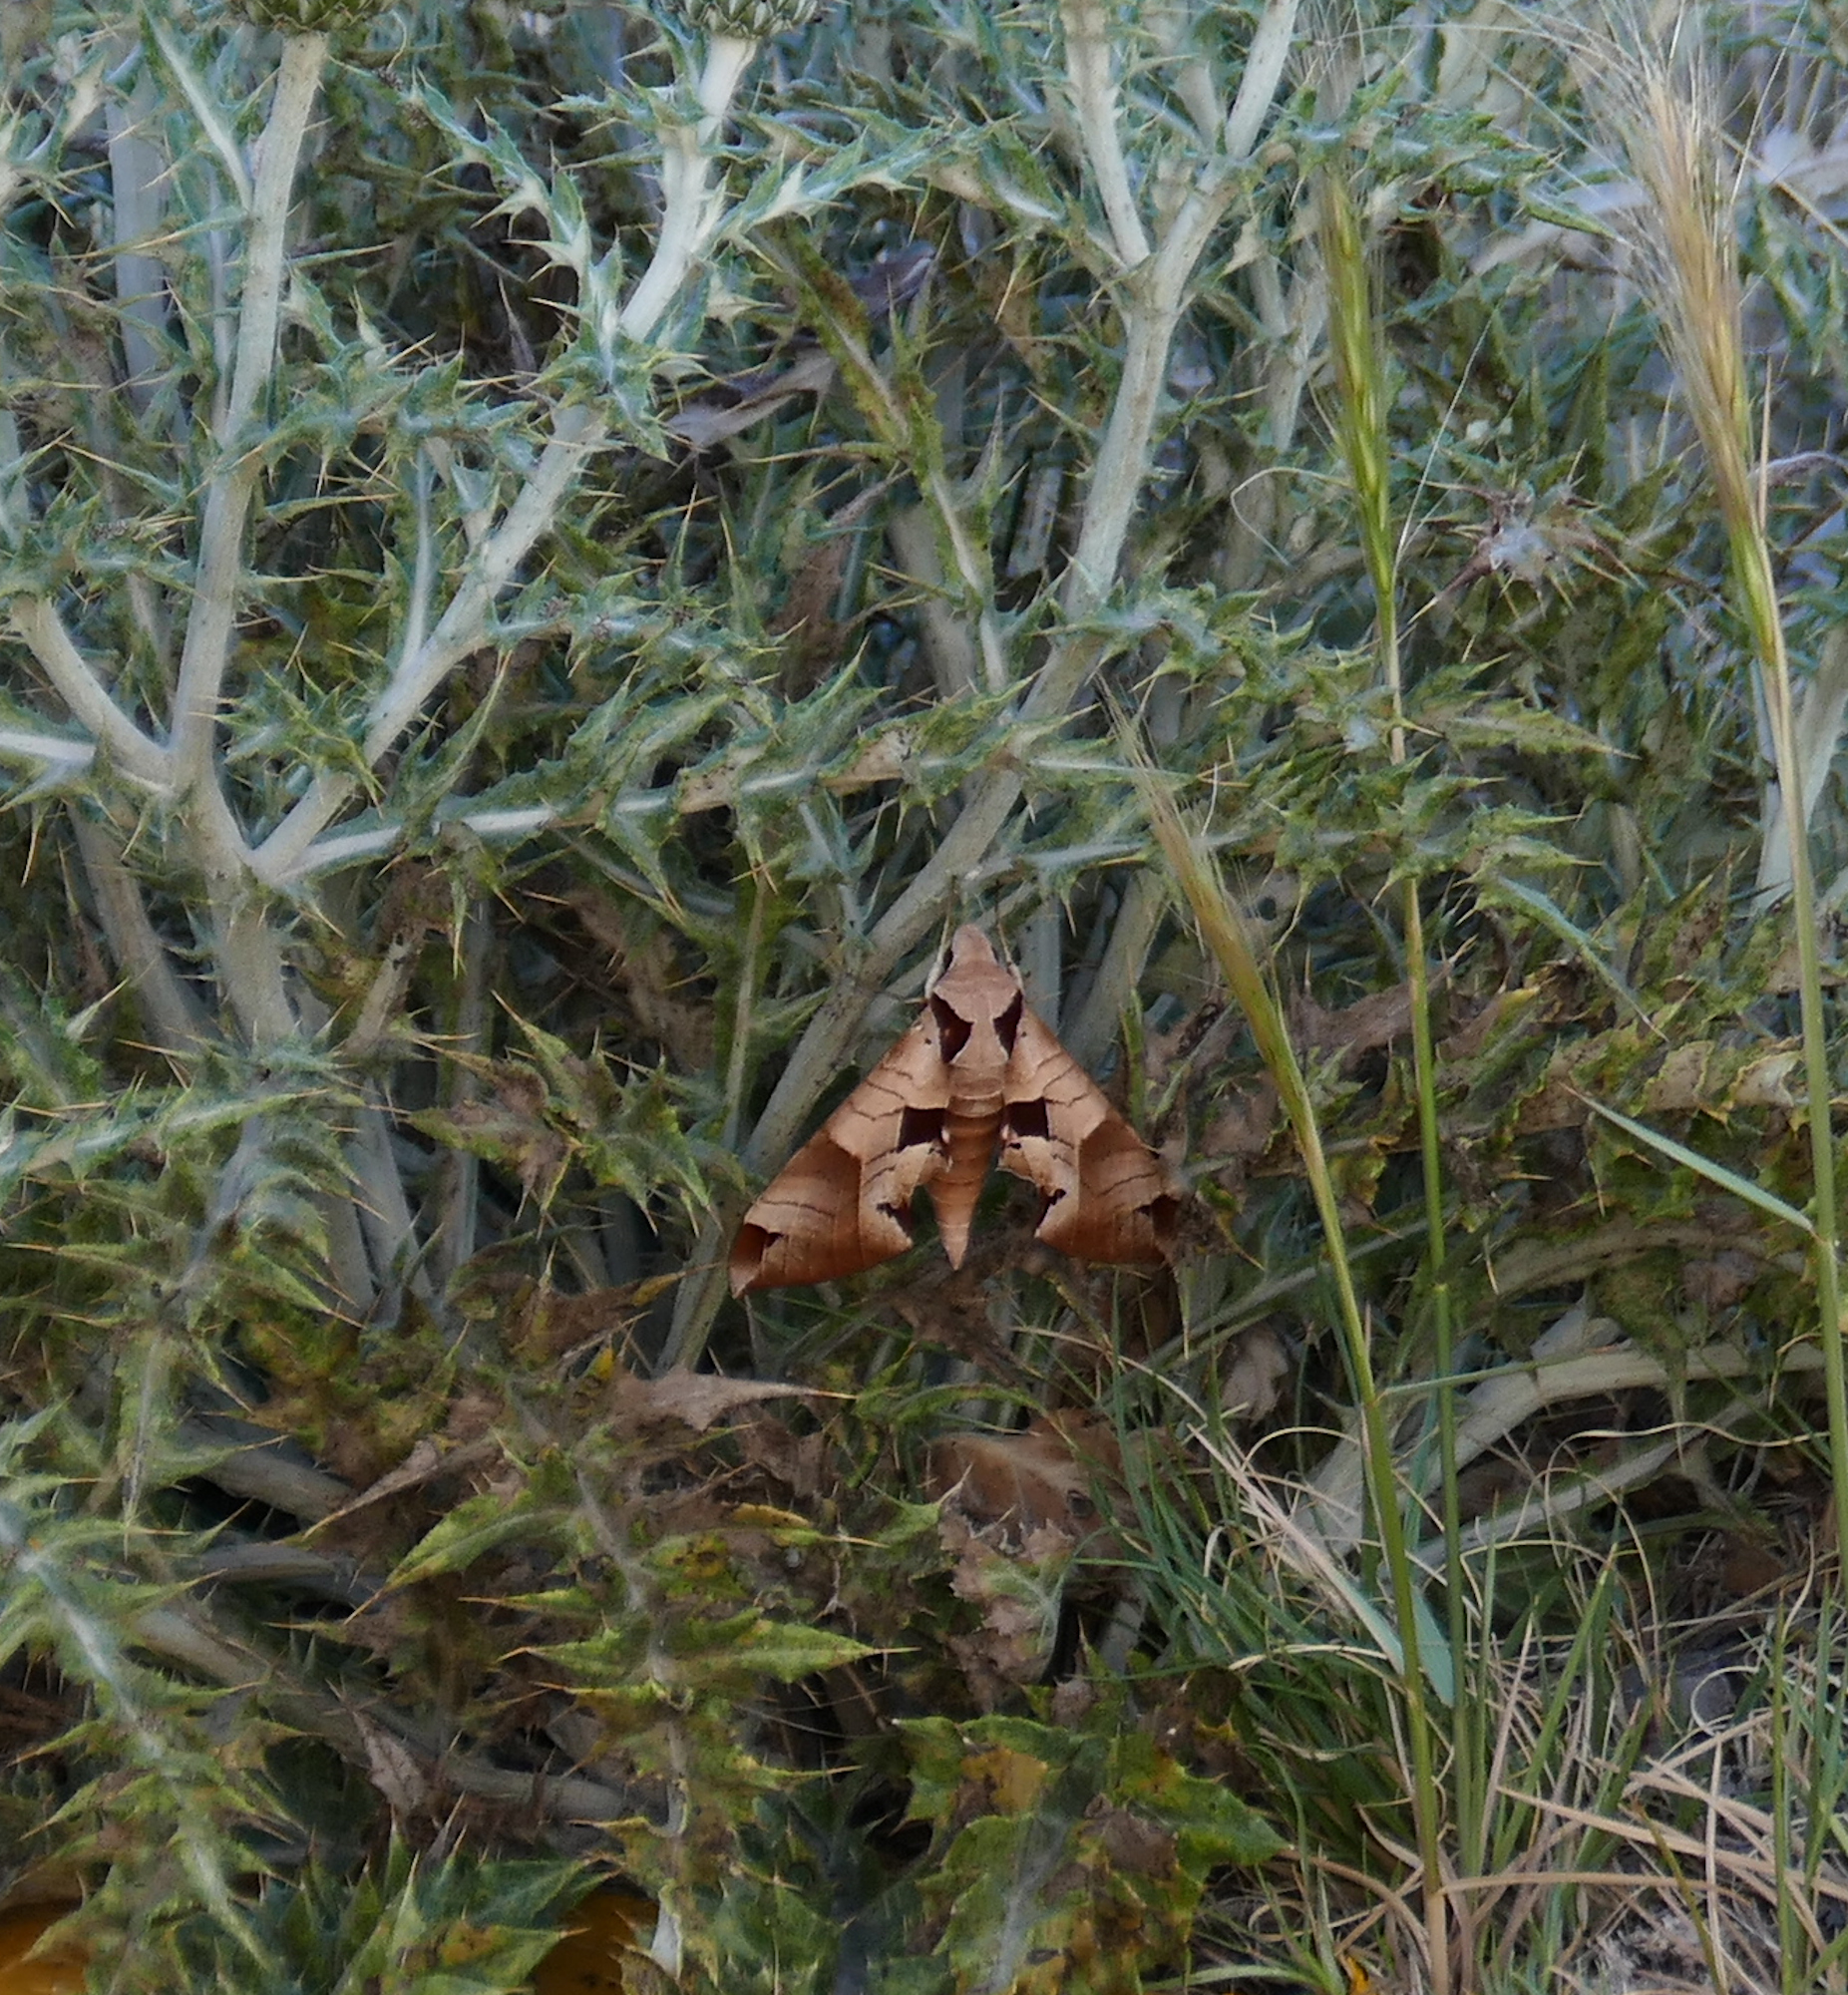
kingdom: Animalia
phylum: Arthropoda
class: Insecta
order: Lepidoptera
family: Sphingidae
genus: Eumorpha
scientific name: Eumorpha achemon
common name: Achemon sphinx
